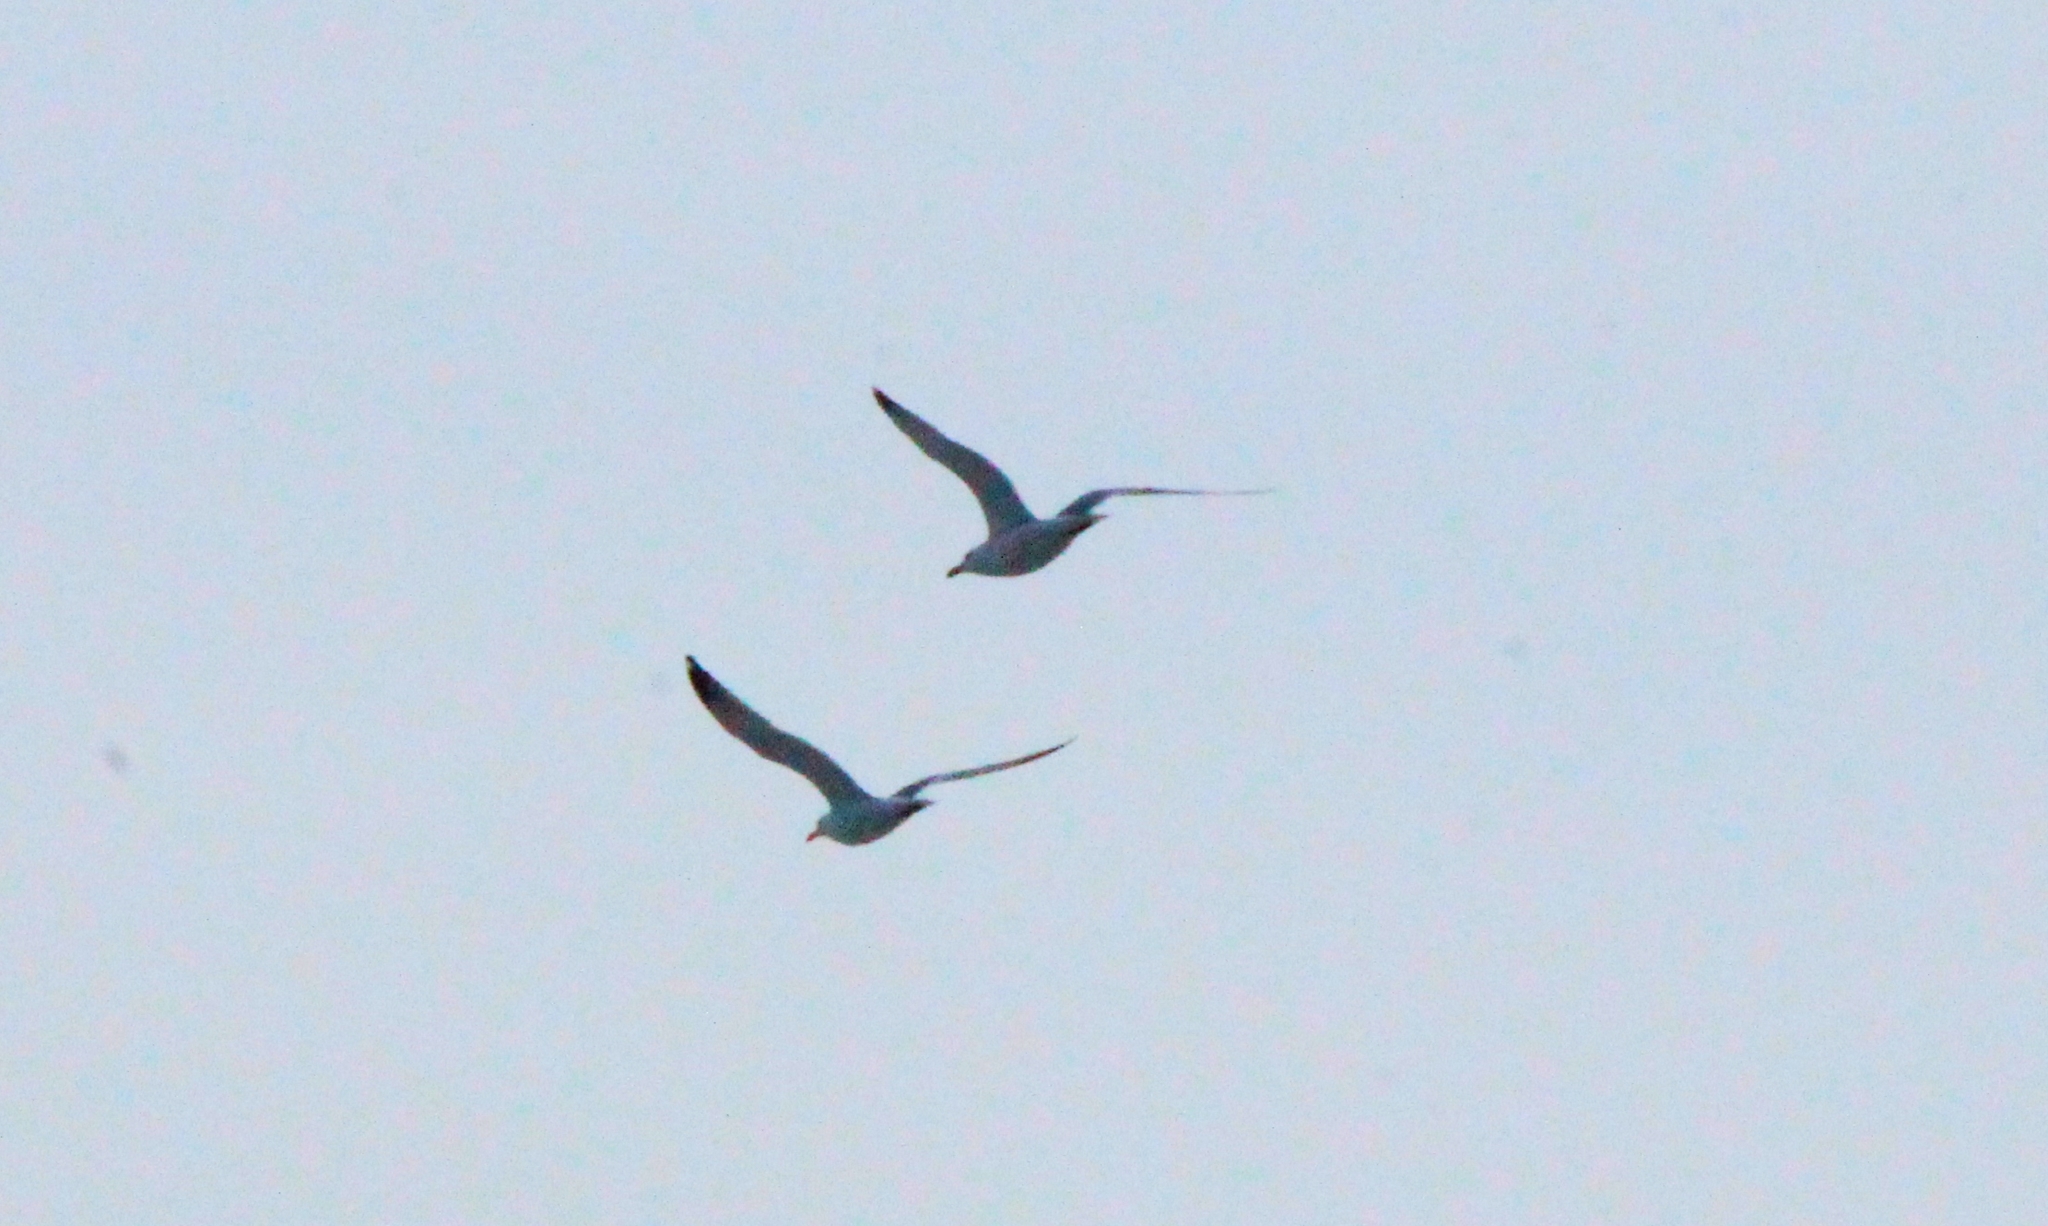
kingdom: Animalia
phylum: Chordata
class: Aves
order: Charadriiformes
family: Laridae
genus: Larus
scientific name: Larus argentatus
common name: Herring gull
